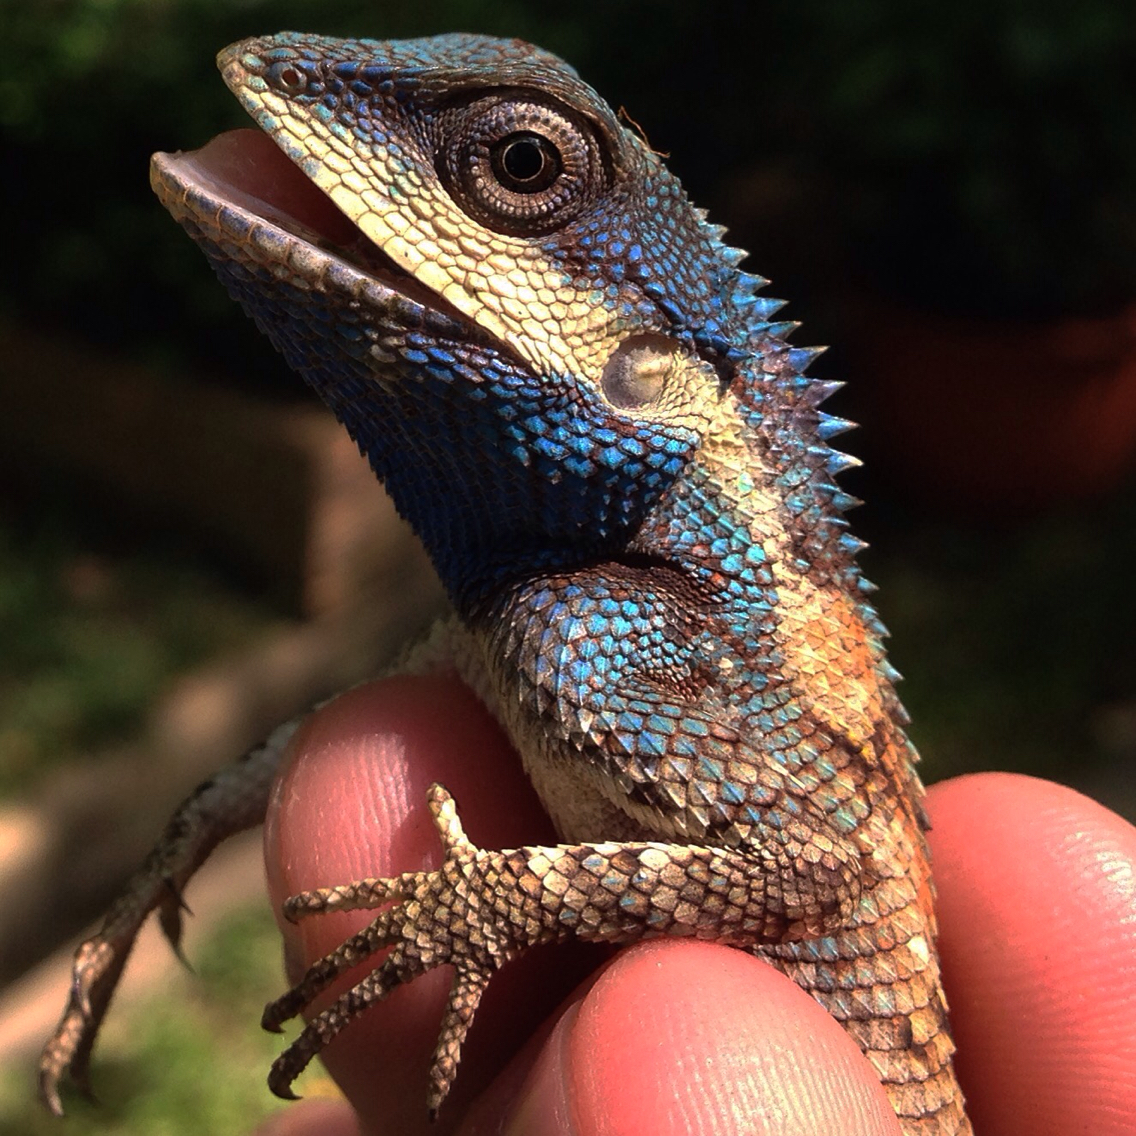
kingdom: Animalia
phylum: Chordata
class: Squamata
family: Agamidae
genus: Calotes
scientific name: Calotes goetzi
